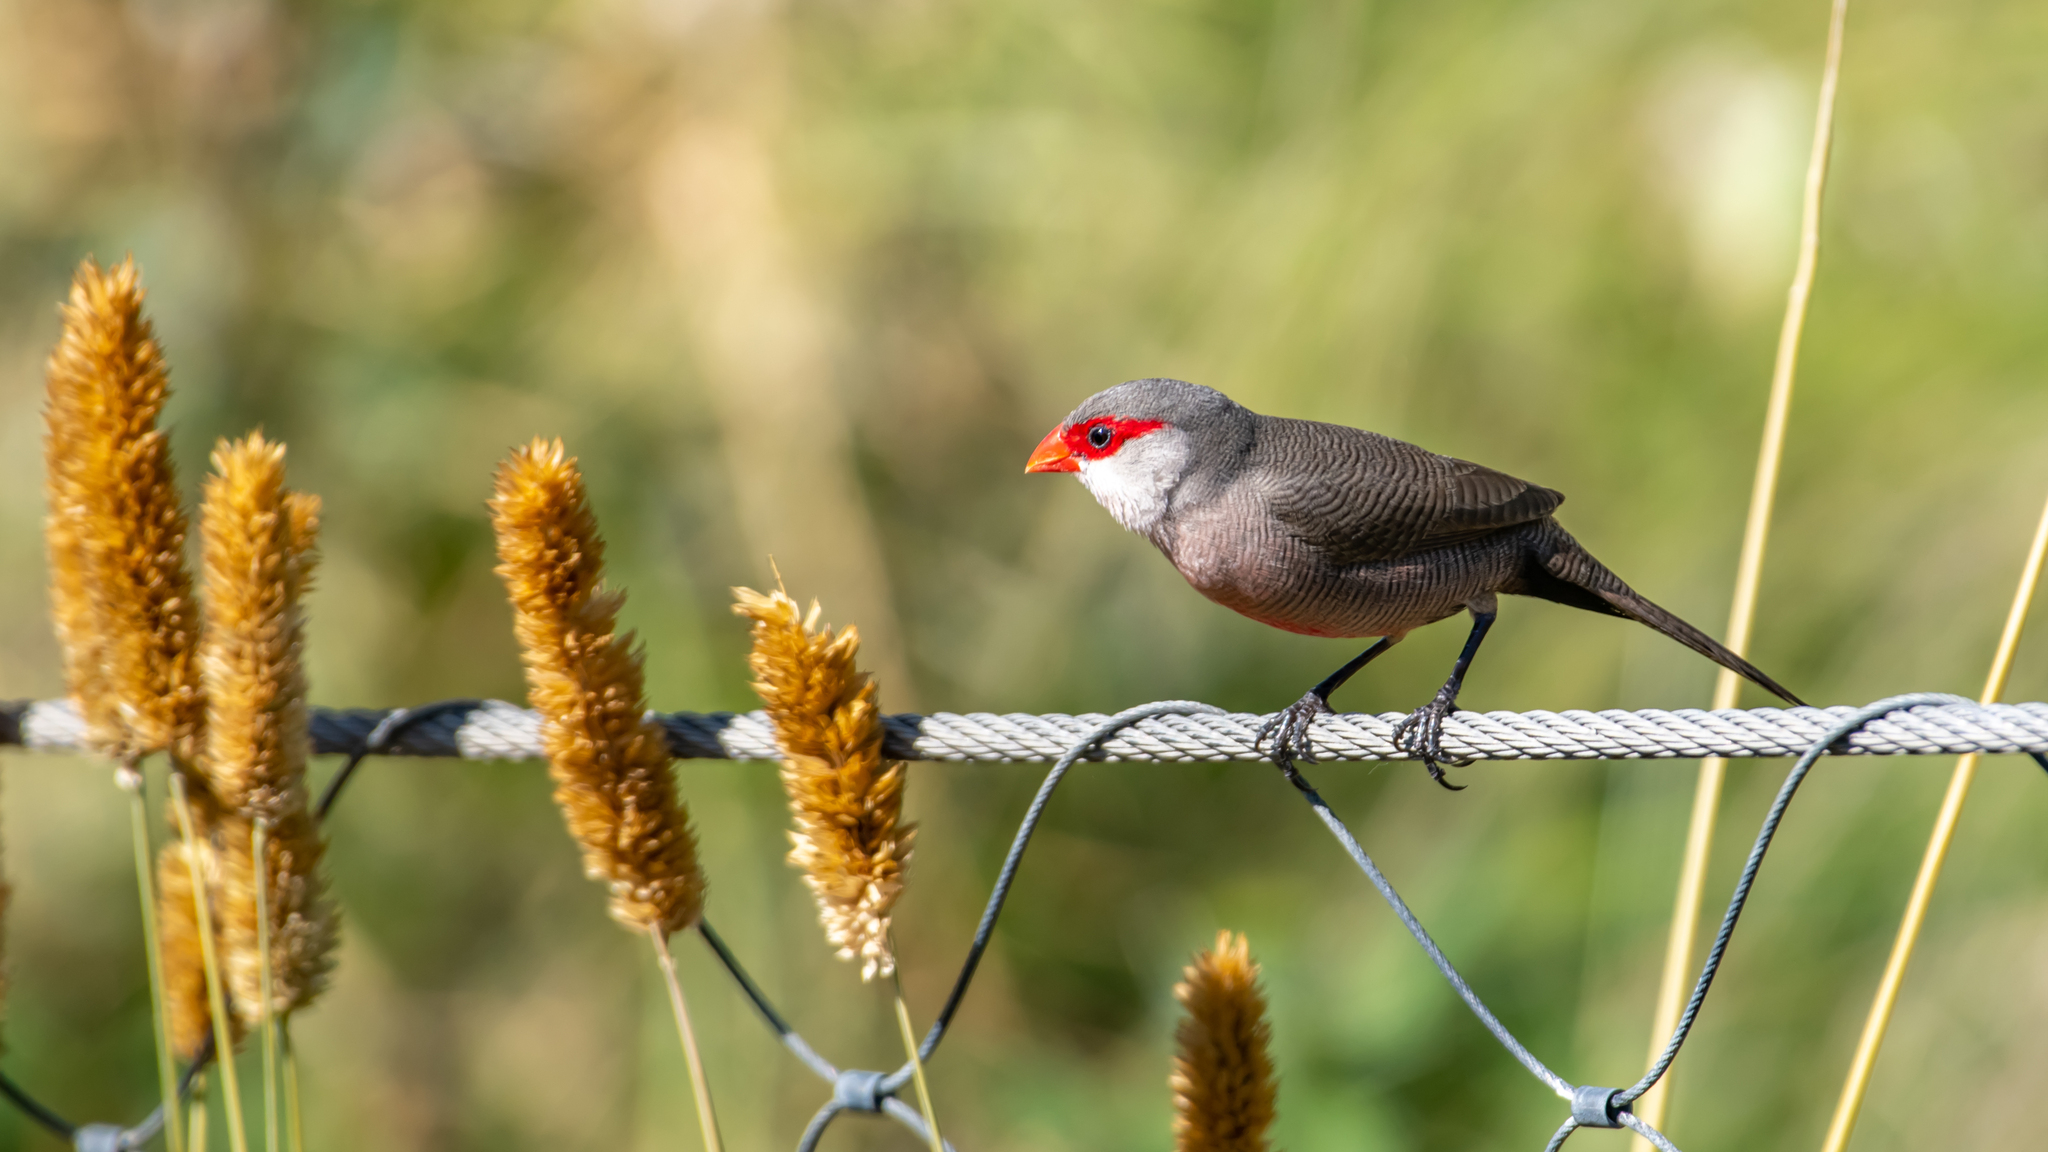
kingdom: Animalia
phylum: Chordata
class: Aves
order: Passeriformes
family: Estrildidae
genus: Estrilda
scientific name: Estrilda astrild
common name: Common waxbill
